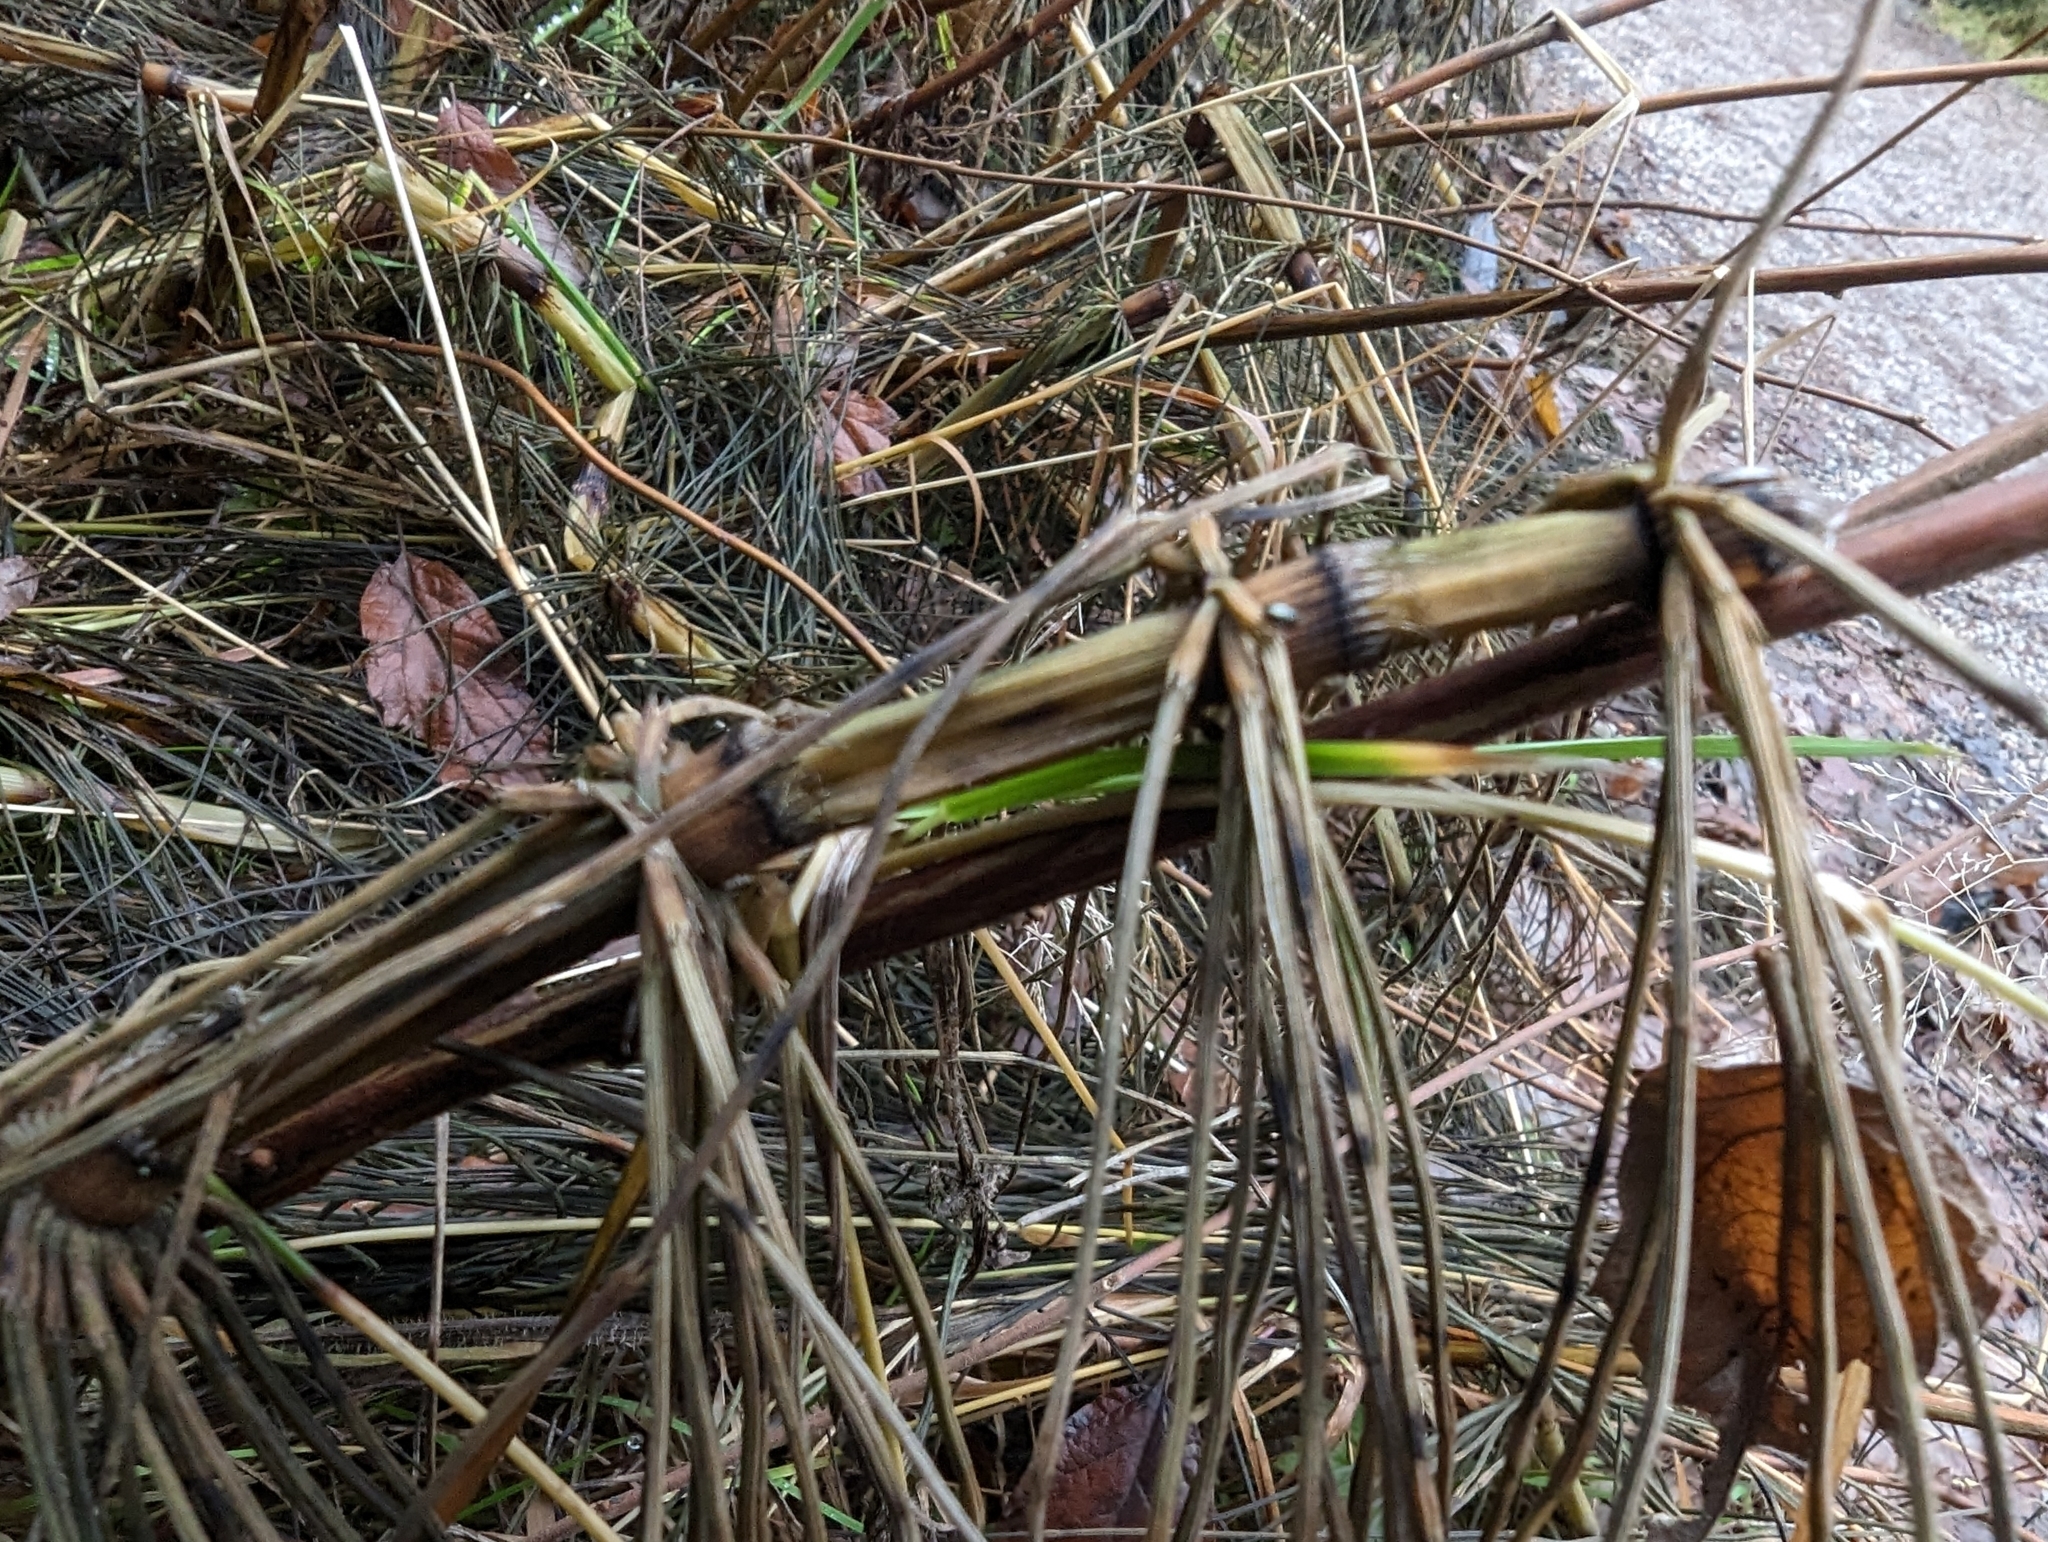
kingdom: Plantae
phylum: Tracheophyta
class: Polypodiopsida
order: Equisetales
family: Equisetaceae
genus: Equisetum
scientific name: Equisetum braunii
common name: Braun's horsetail
